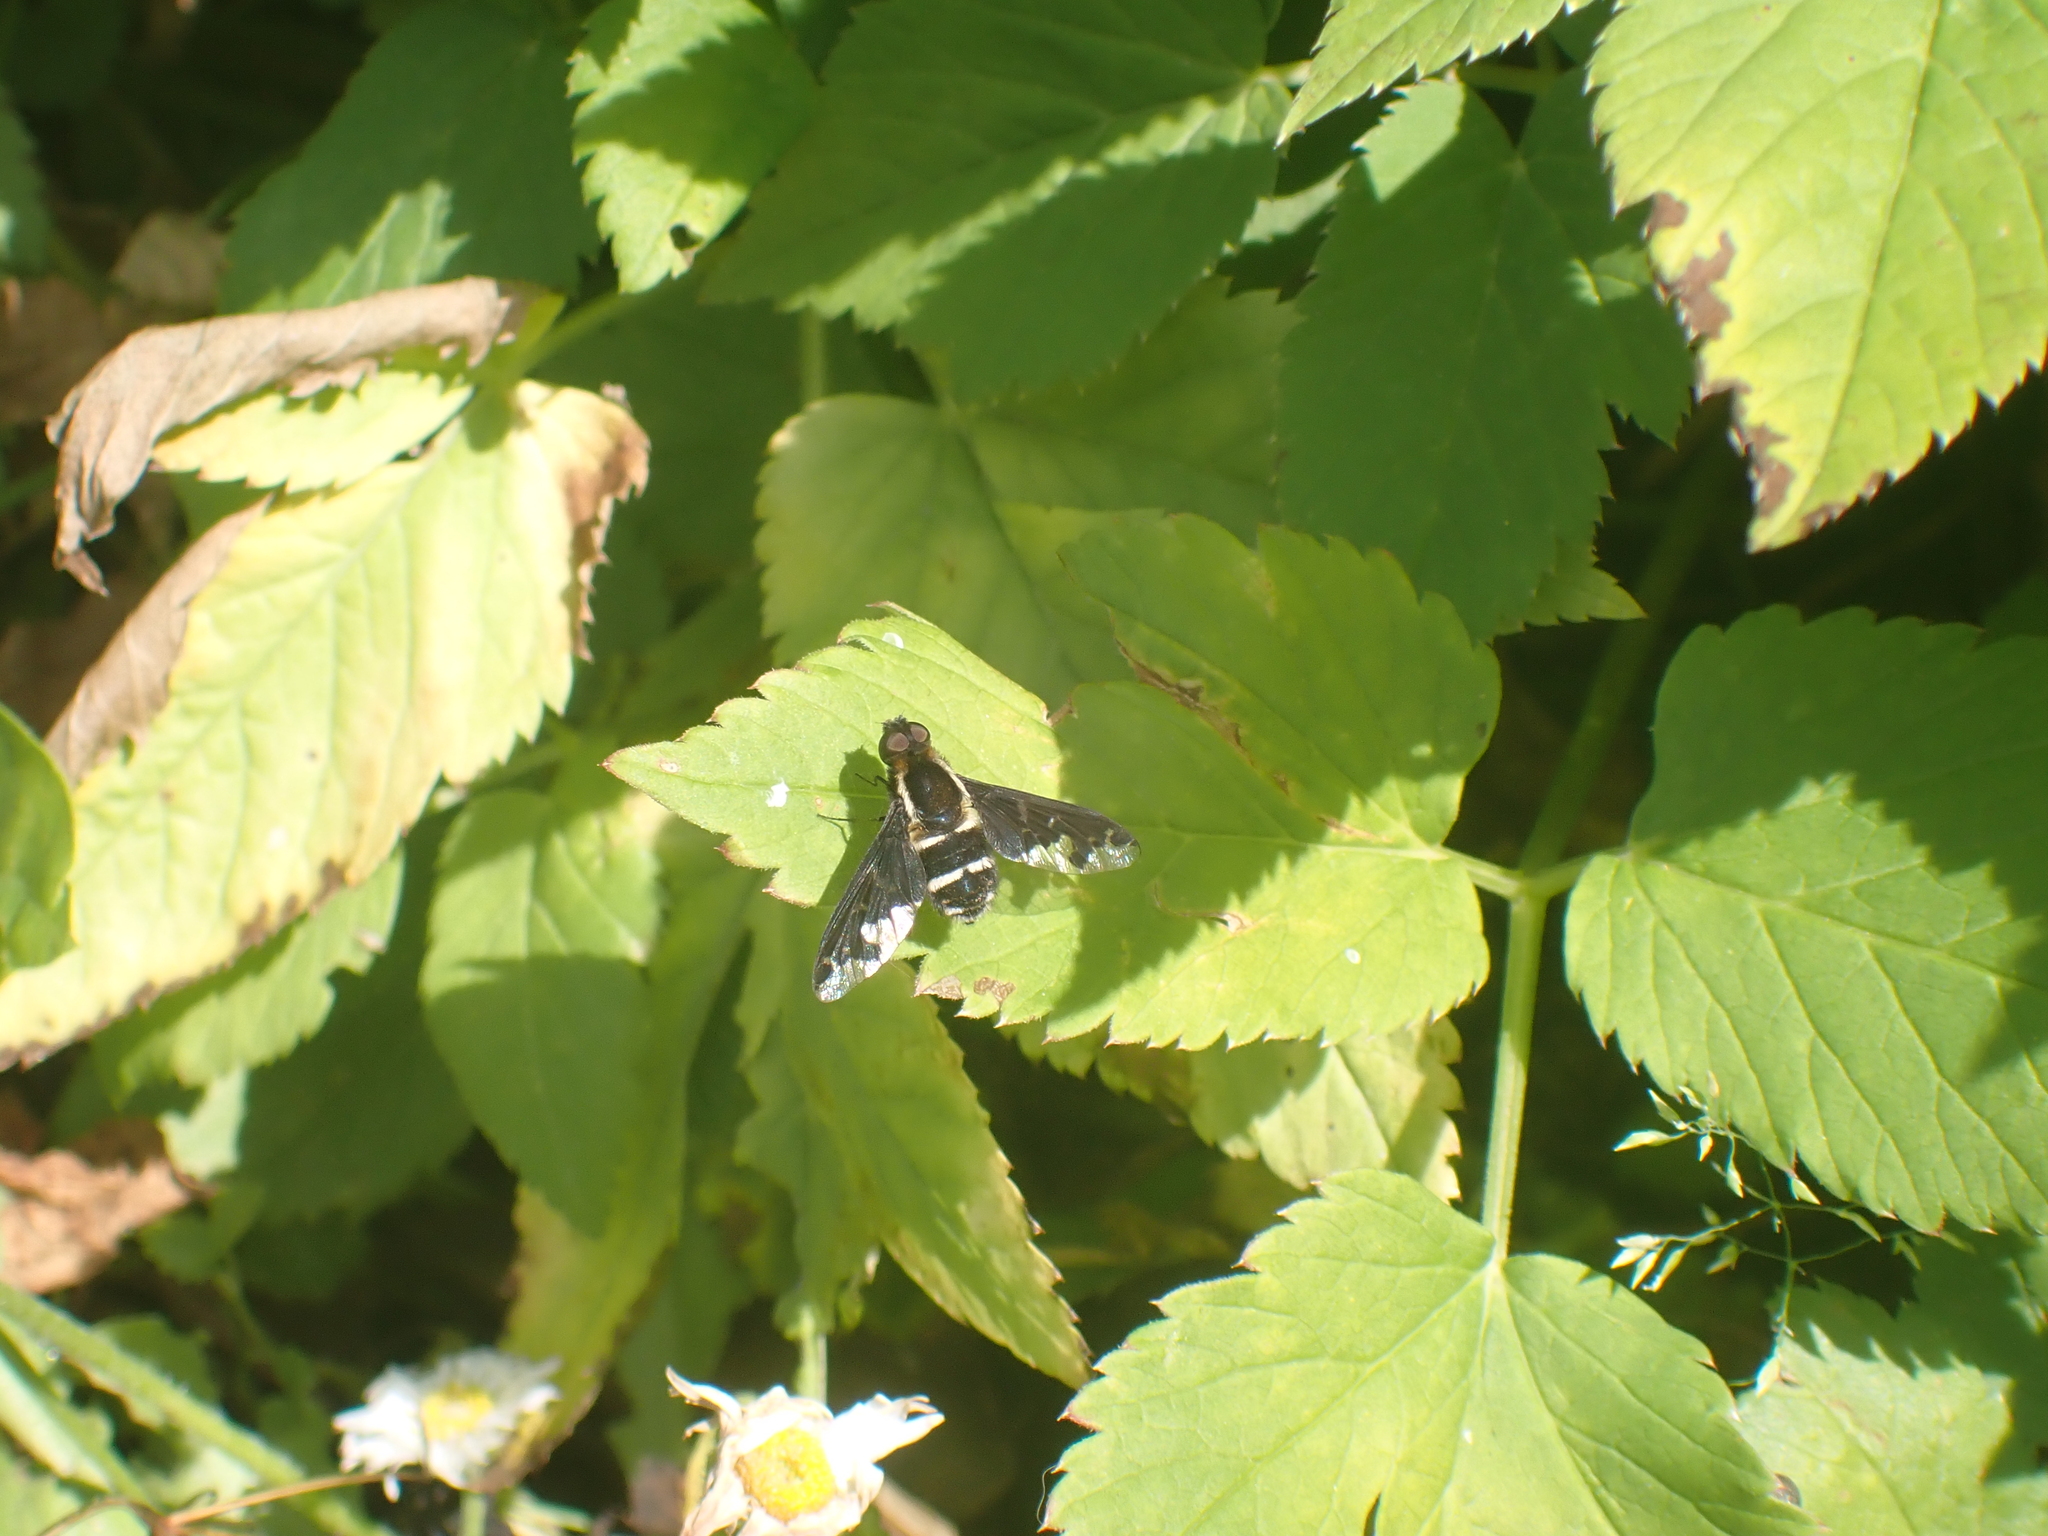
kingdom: Animalia
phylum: Arthropoda
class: Insecta
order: Diptera
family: Bombyliidae
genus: Hemipenthes
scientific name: Hemipenthes maura
